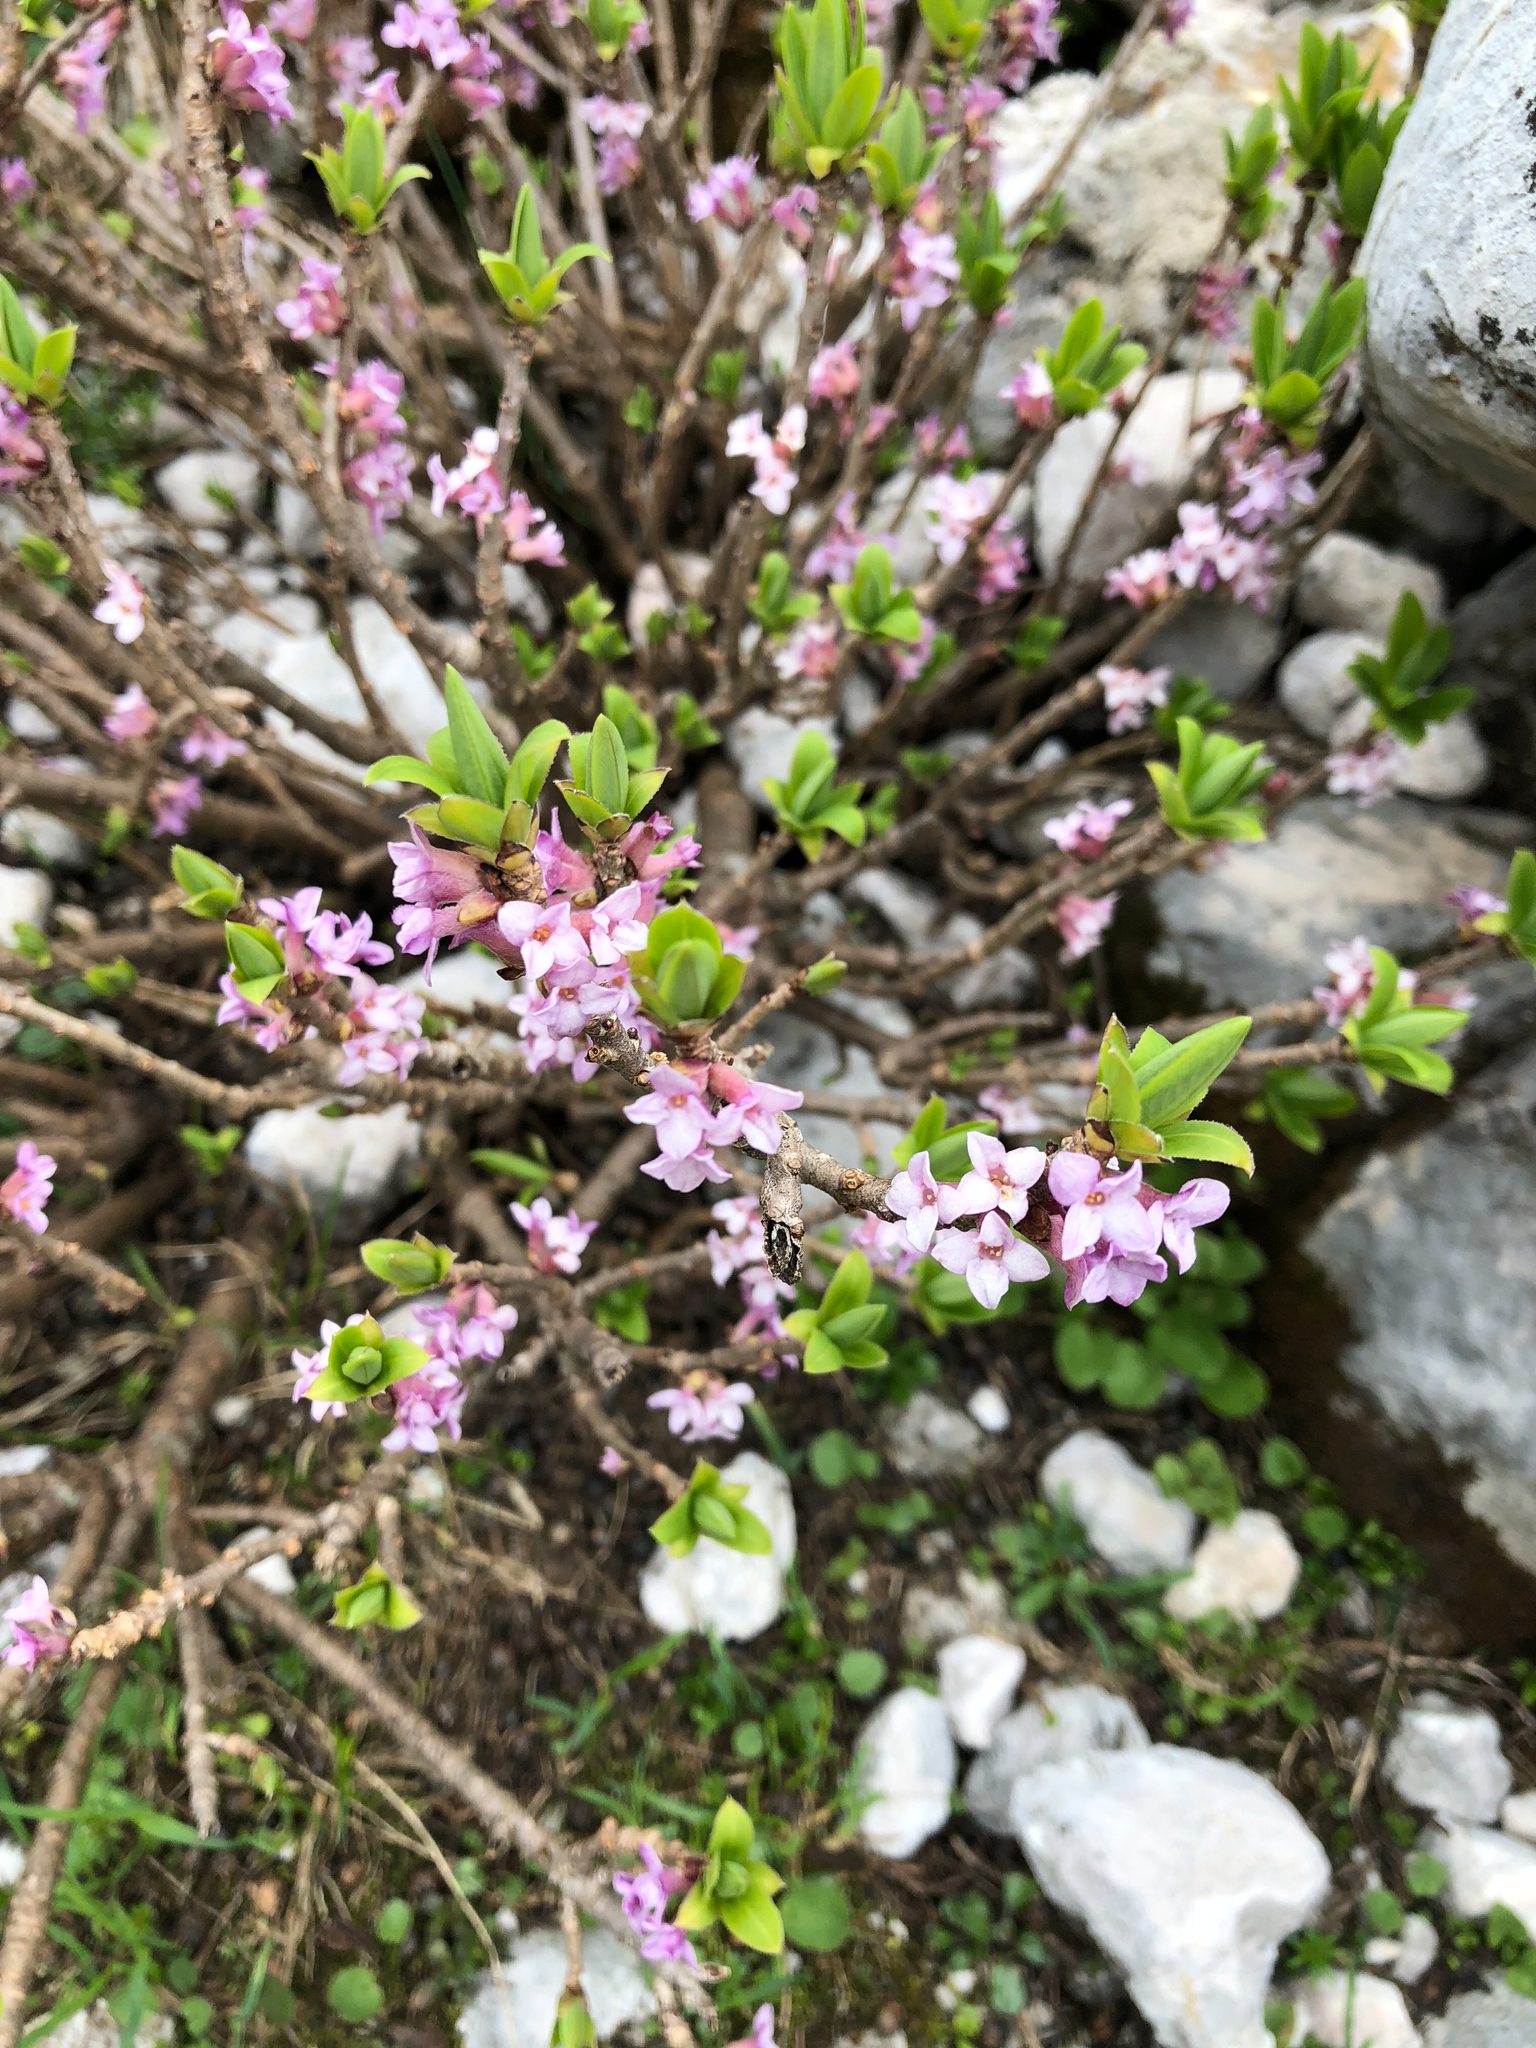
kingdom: Plantae
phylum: Tracheophyta
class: Magnoliopsida
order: Malvales
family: Thymelaeaceae
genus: Daphne
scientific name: Daphne mezereum
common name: Mezereon
